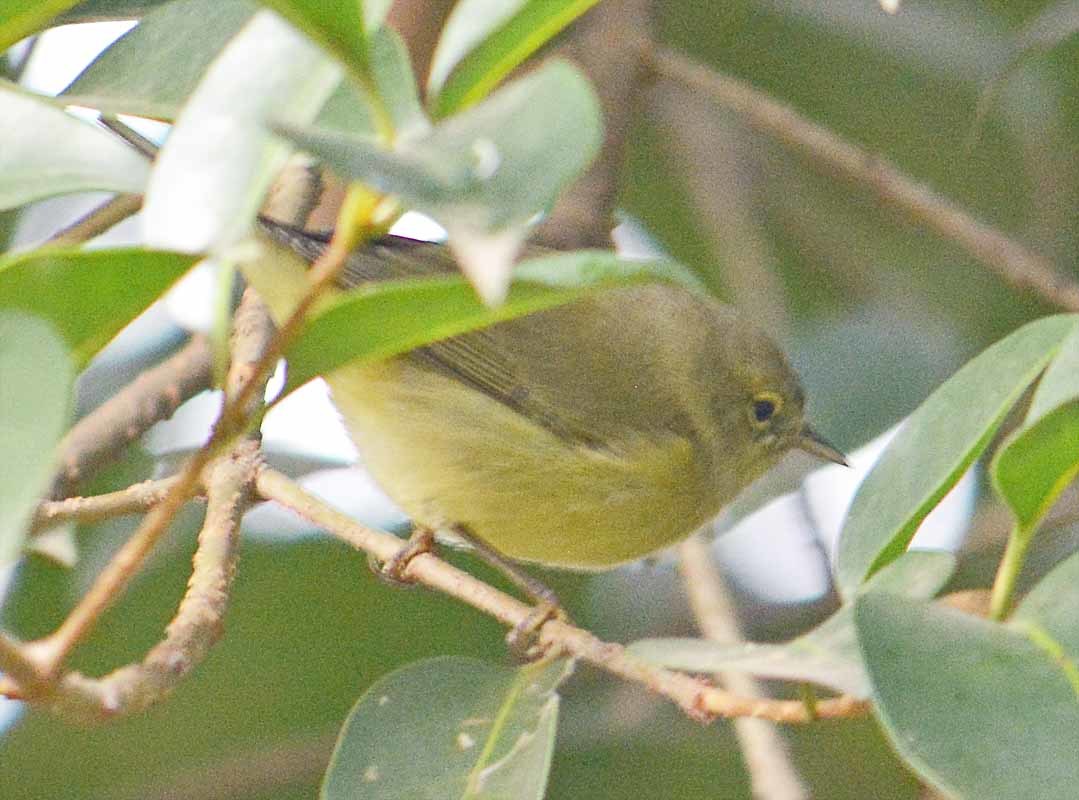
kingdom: Animalia
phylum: Chordata
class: Aves
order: Passeriformes
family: Parulidae
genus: Leiothlypis
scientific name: Leiothlypis celata
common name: Orange-crowned warbler
